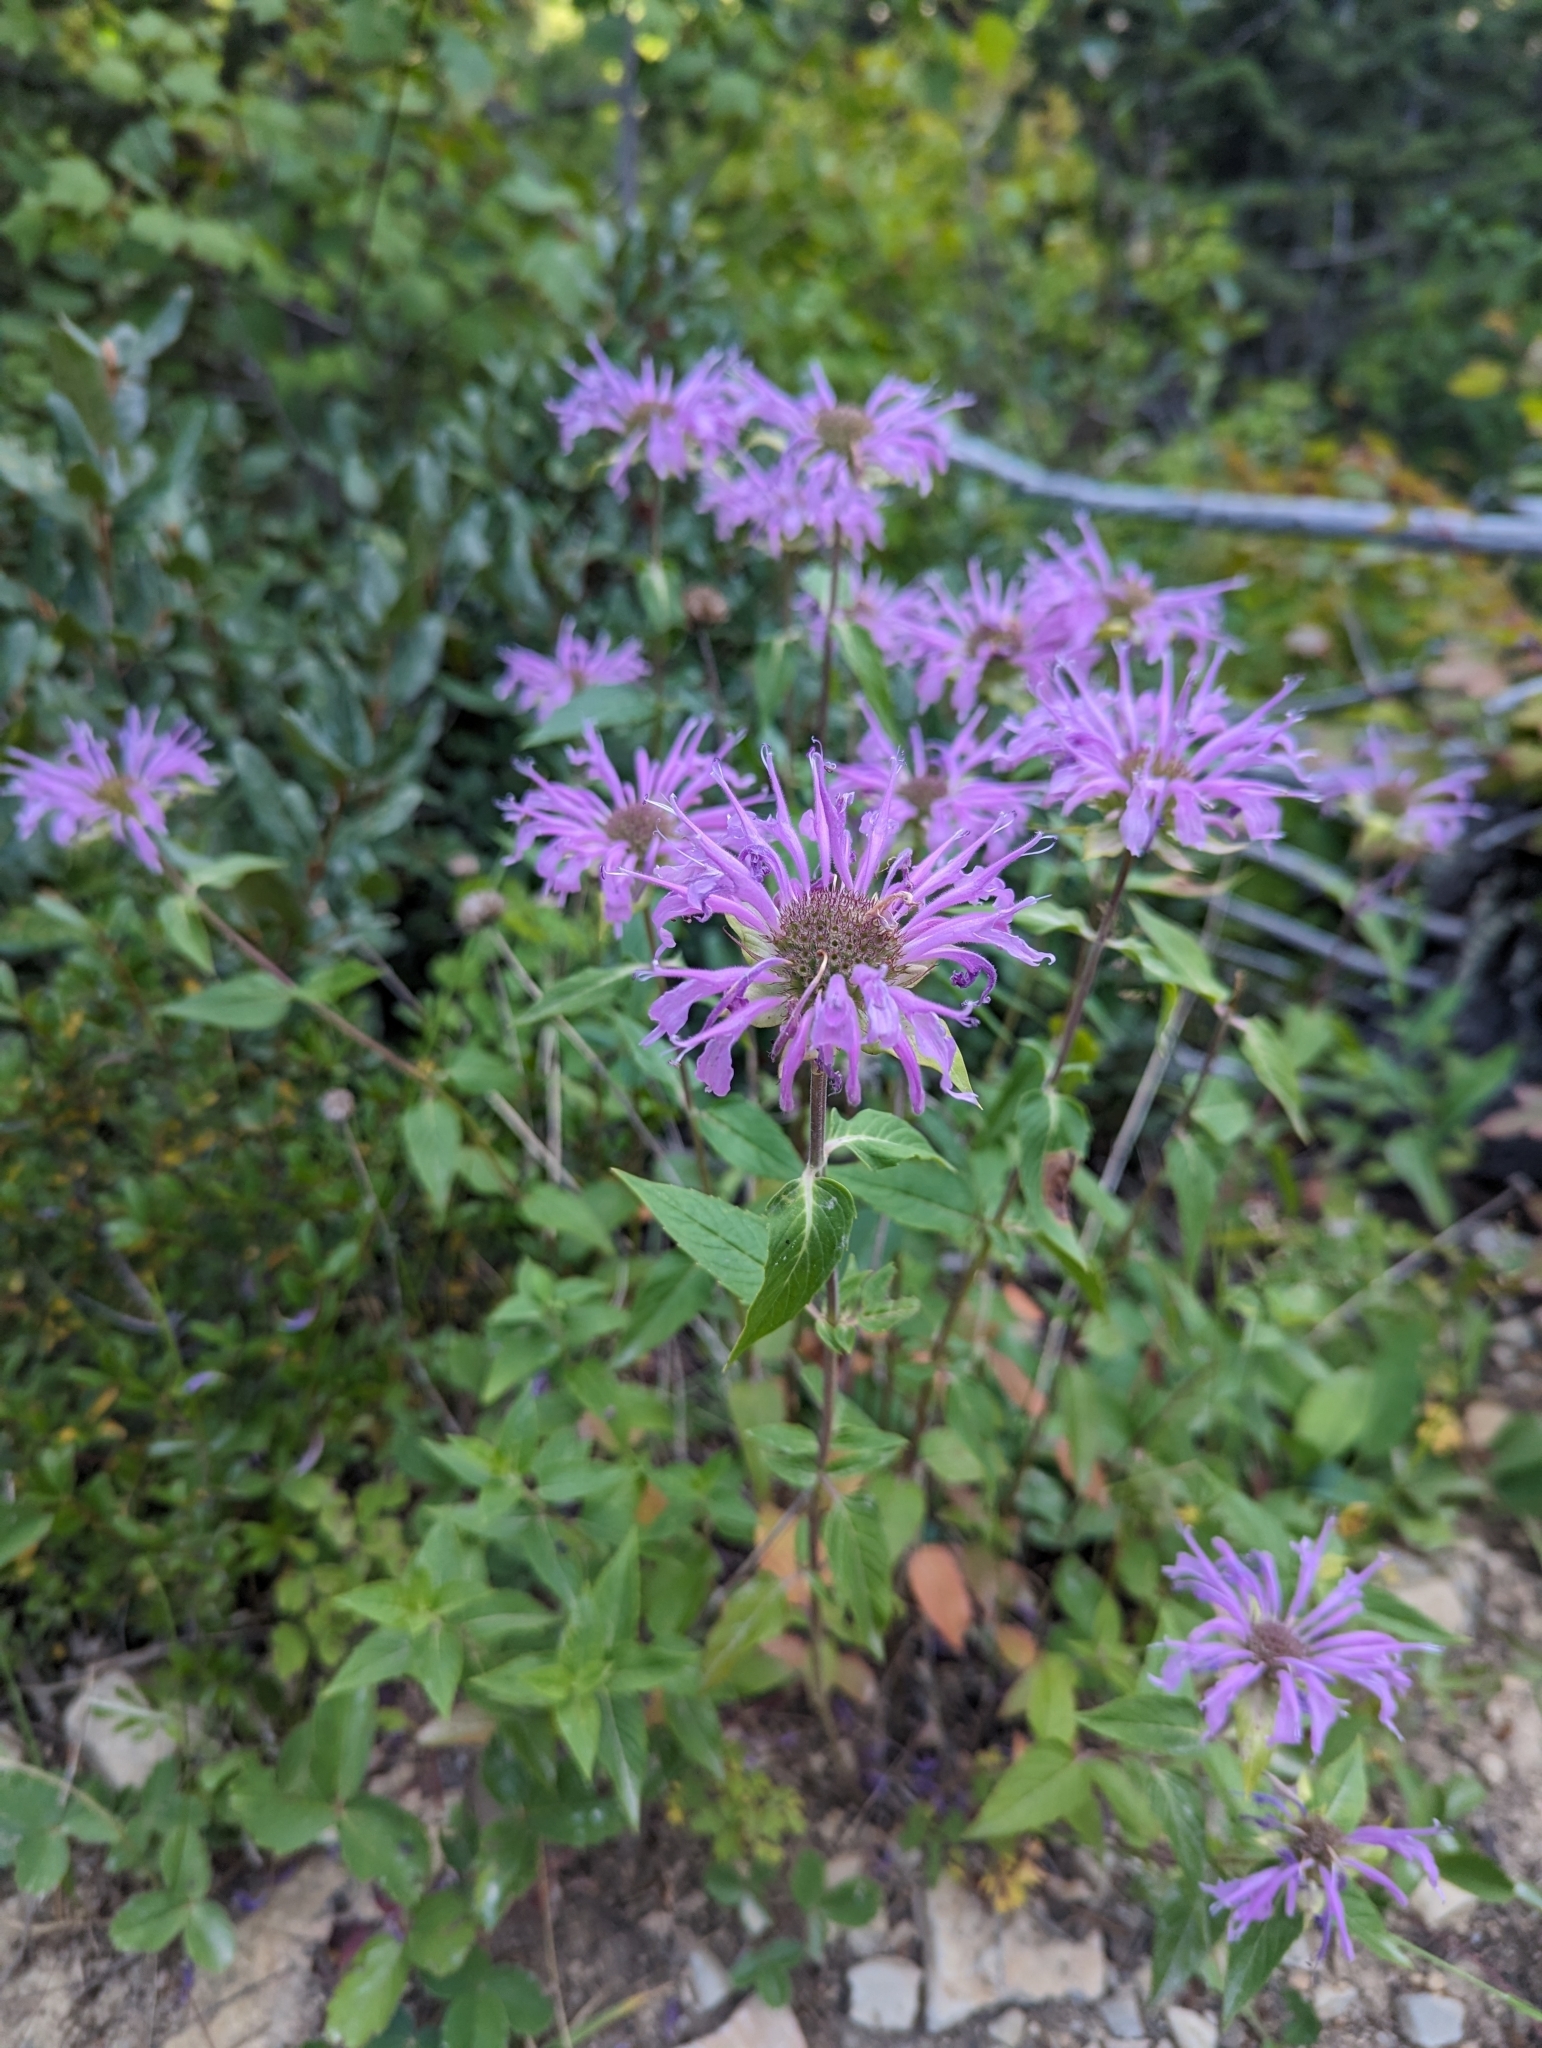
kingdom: Plantae
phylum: Tracheophyta
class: Magnoliopsida
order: Lamiales
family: Lamiaceae
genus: Monarda
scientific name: Monarda fistulosa
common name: Purple beebalm
